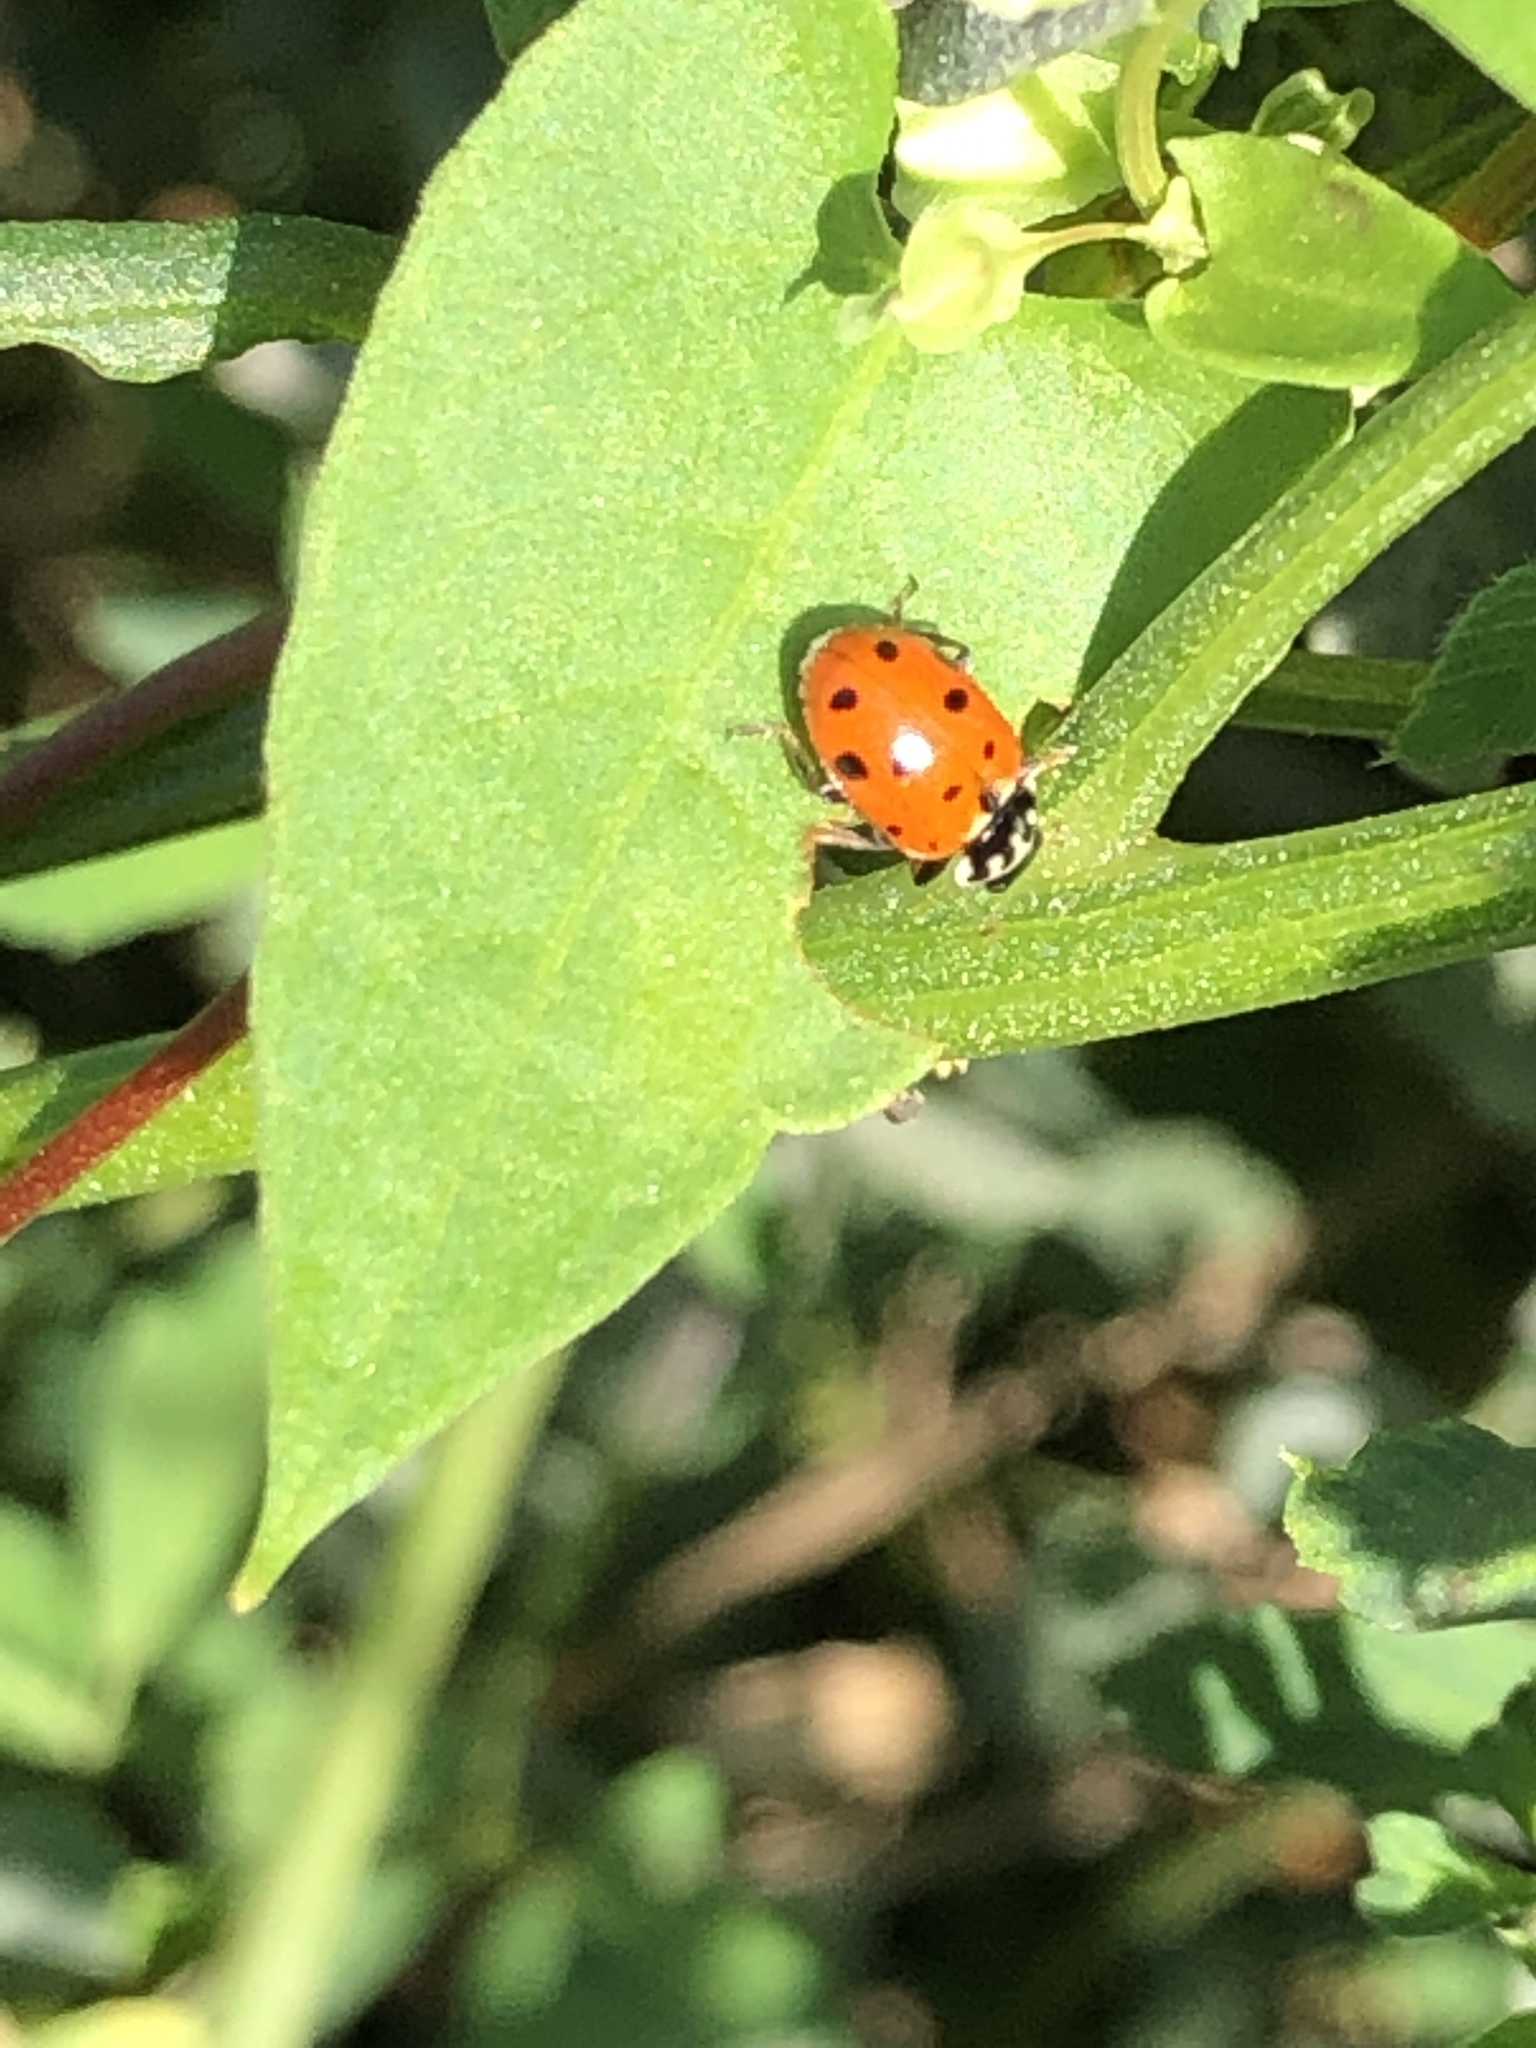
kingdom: Animalia
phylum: Arthropoda
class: Insecta
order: Coleoptera
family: Coccinellidae
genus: Hippodamia
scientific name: Hippodamia variegata
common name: Ladybird beetle
